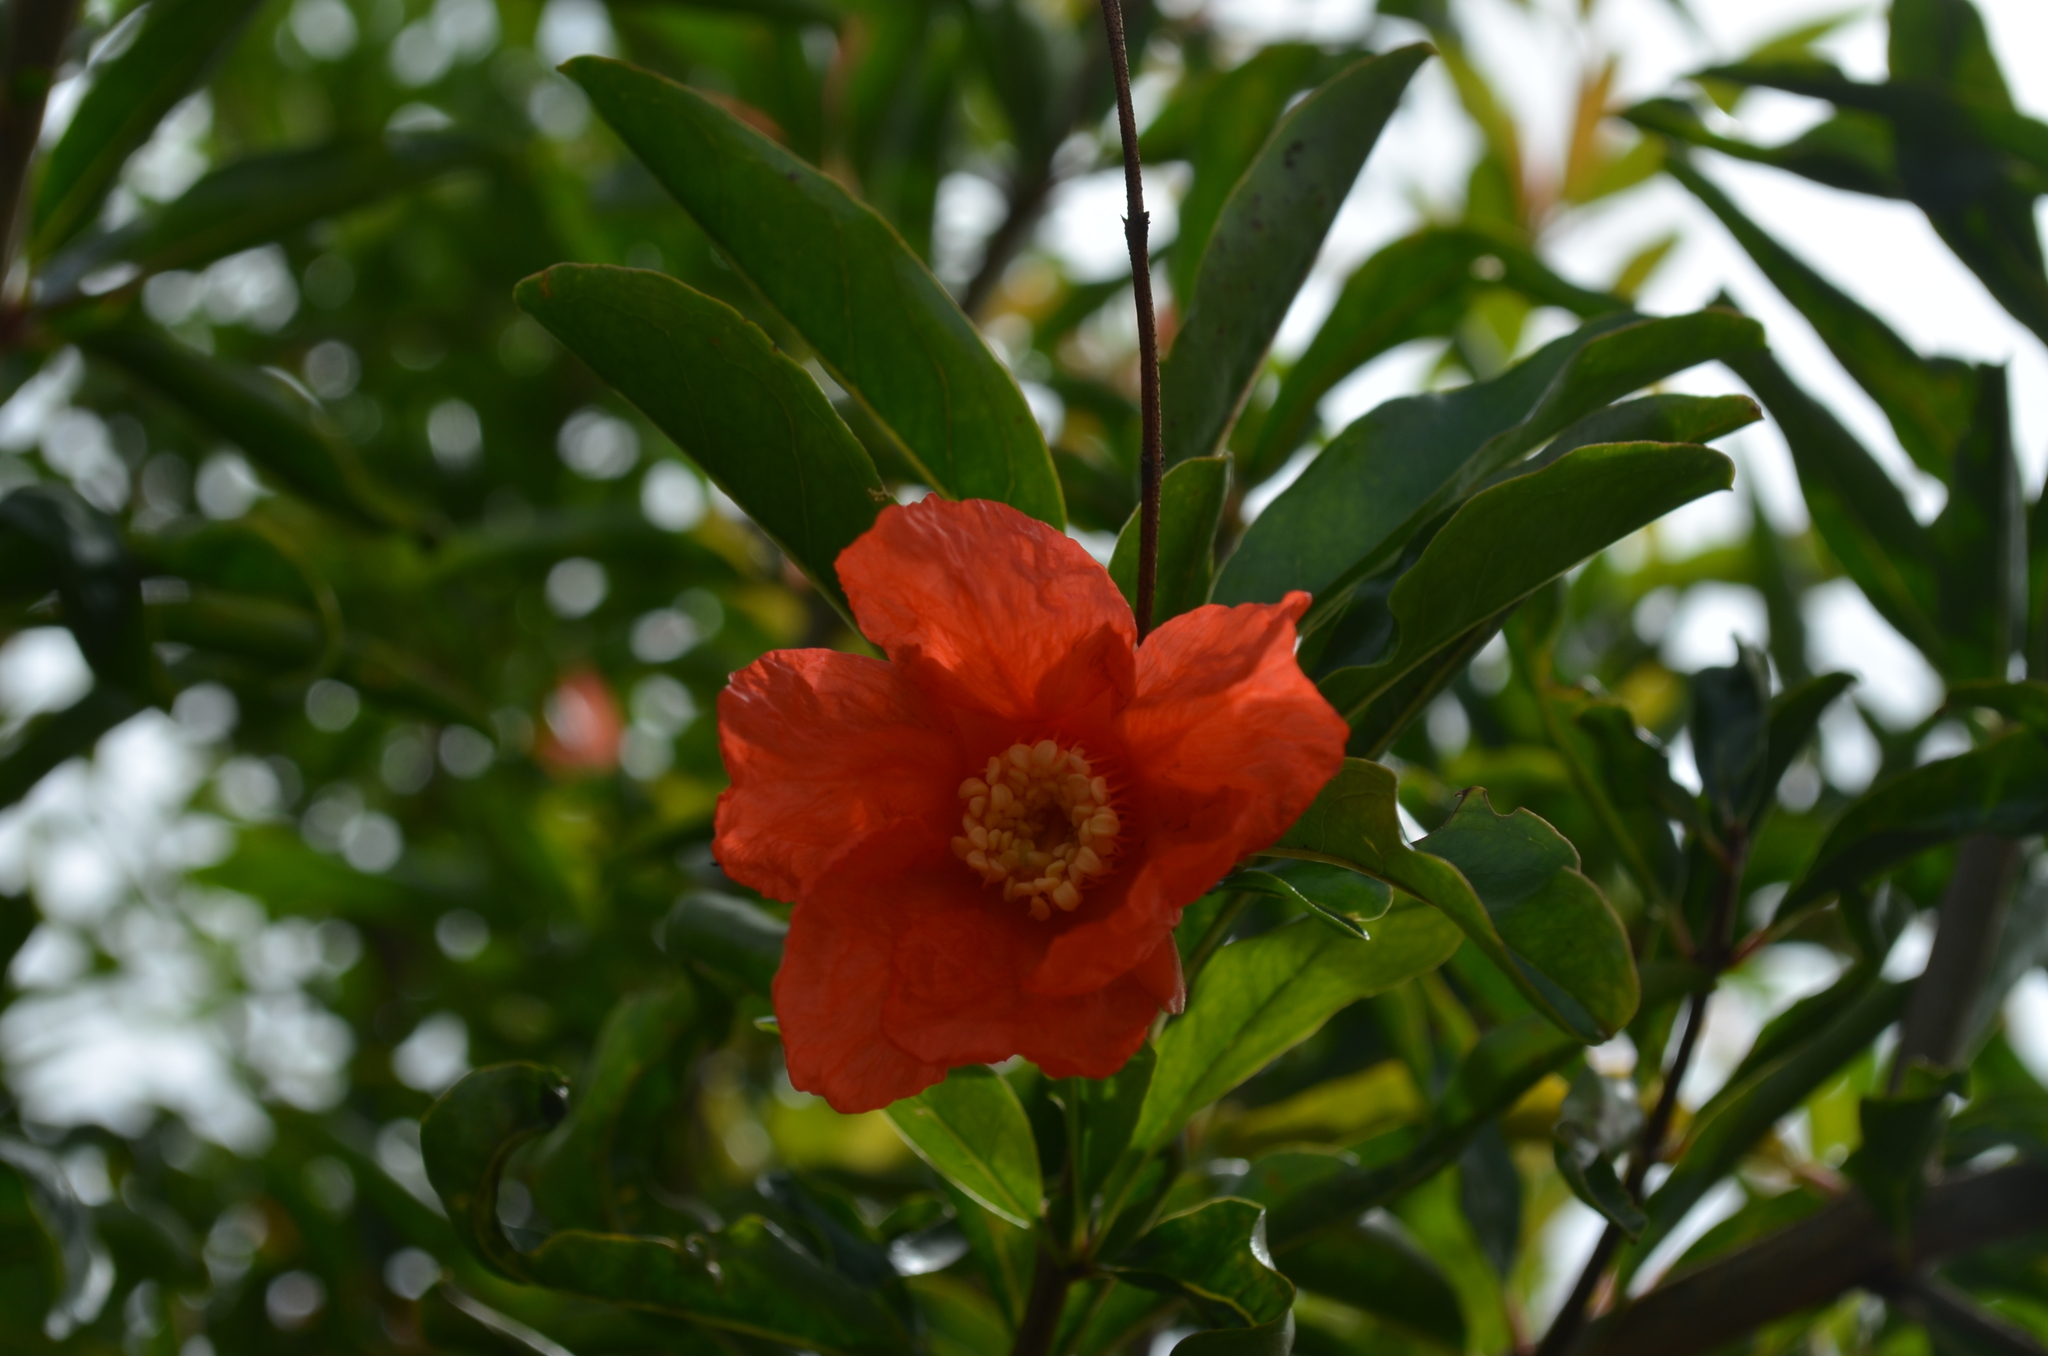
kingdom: Plantae
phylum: Tracheophyta
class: Magnoliopsida
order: Myrtales
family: Lythraceae
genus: Punica
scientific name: Punica granatum
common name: Pomegranate
